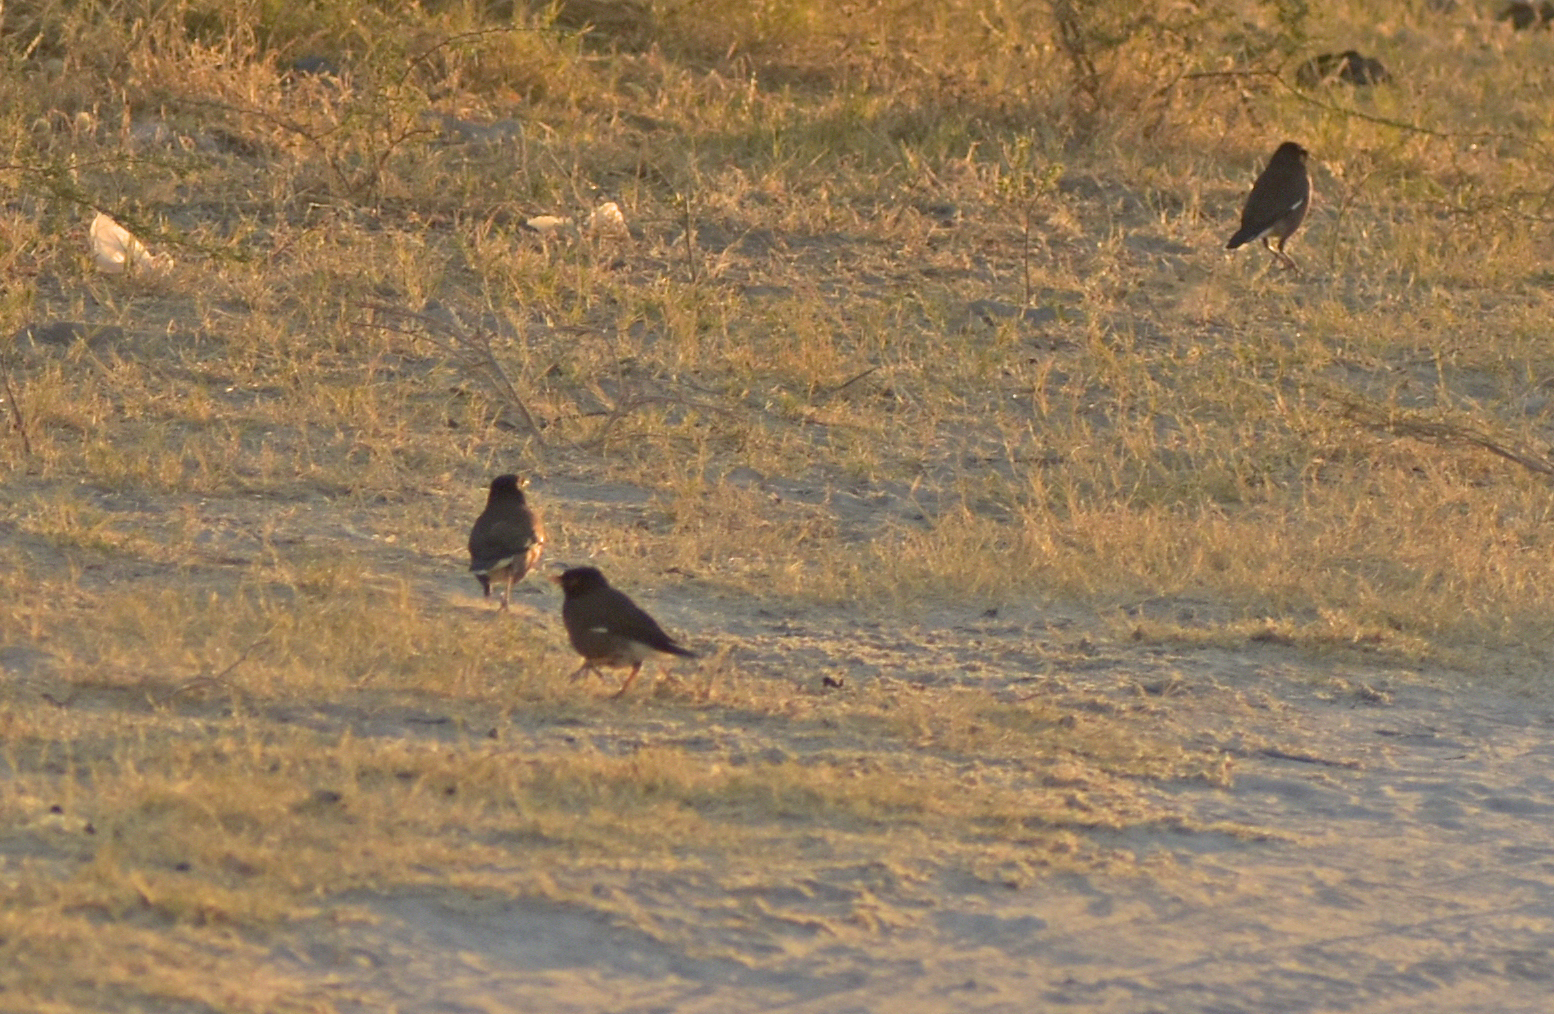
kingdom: Animalia
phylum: Chordata
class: Aves
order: Passeriformes
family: Sturnidae
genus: Acridotheres
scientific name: Acridotheres tristis
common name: Common myna
